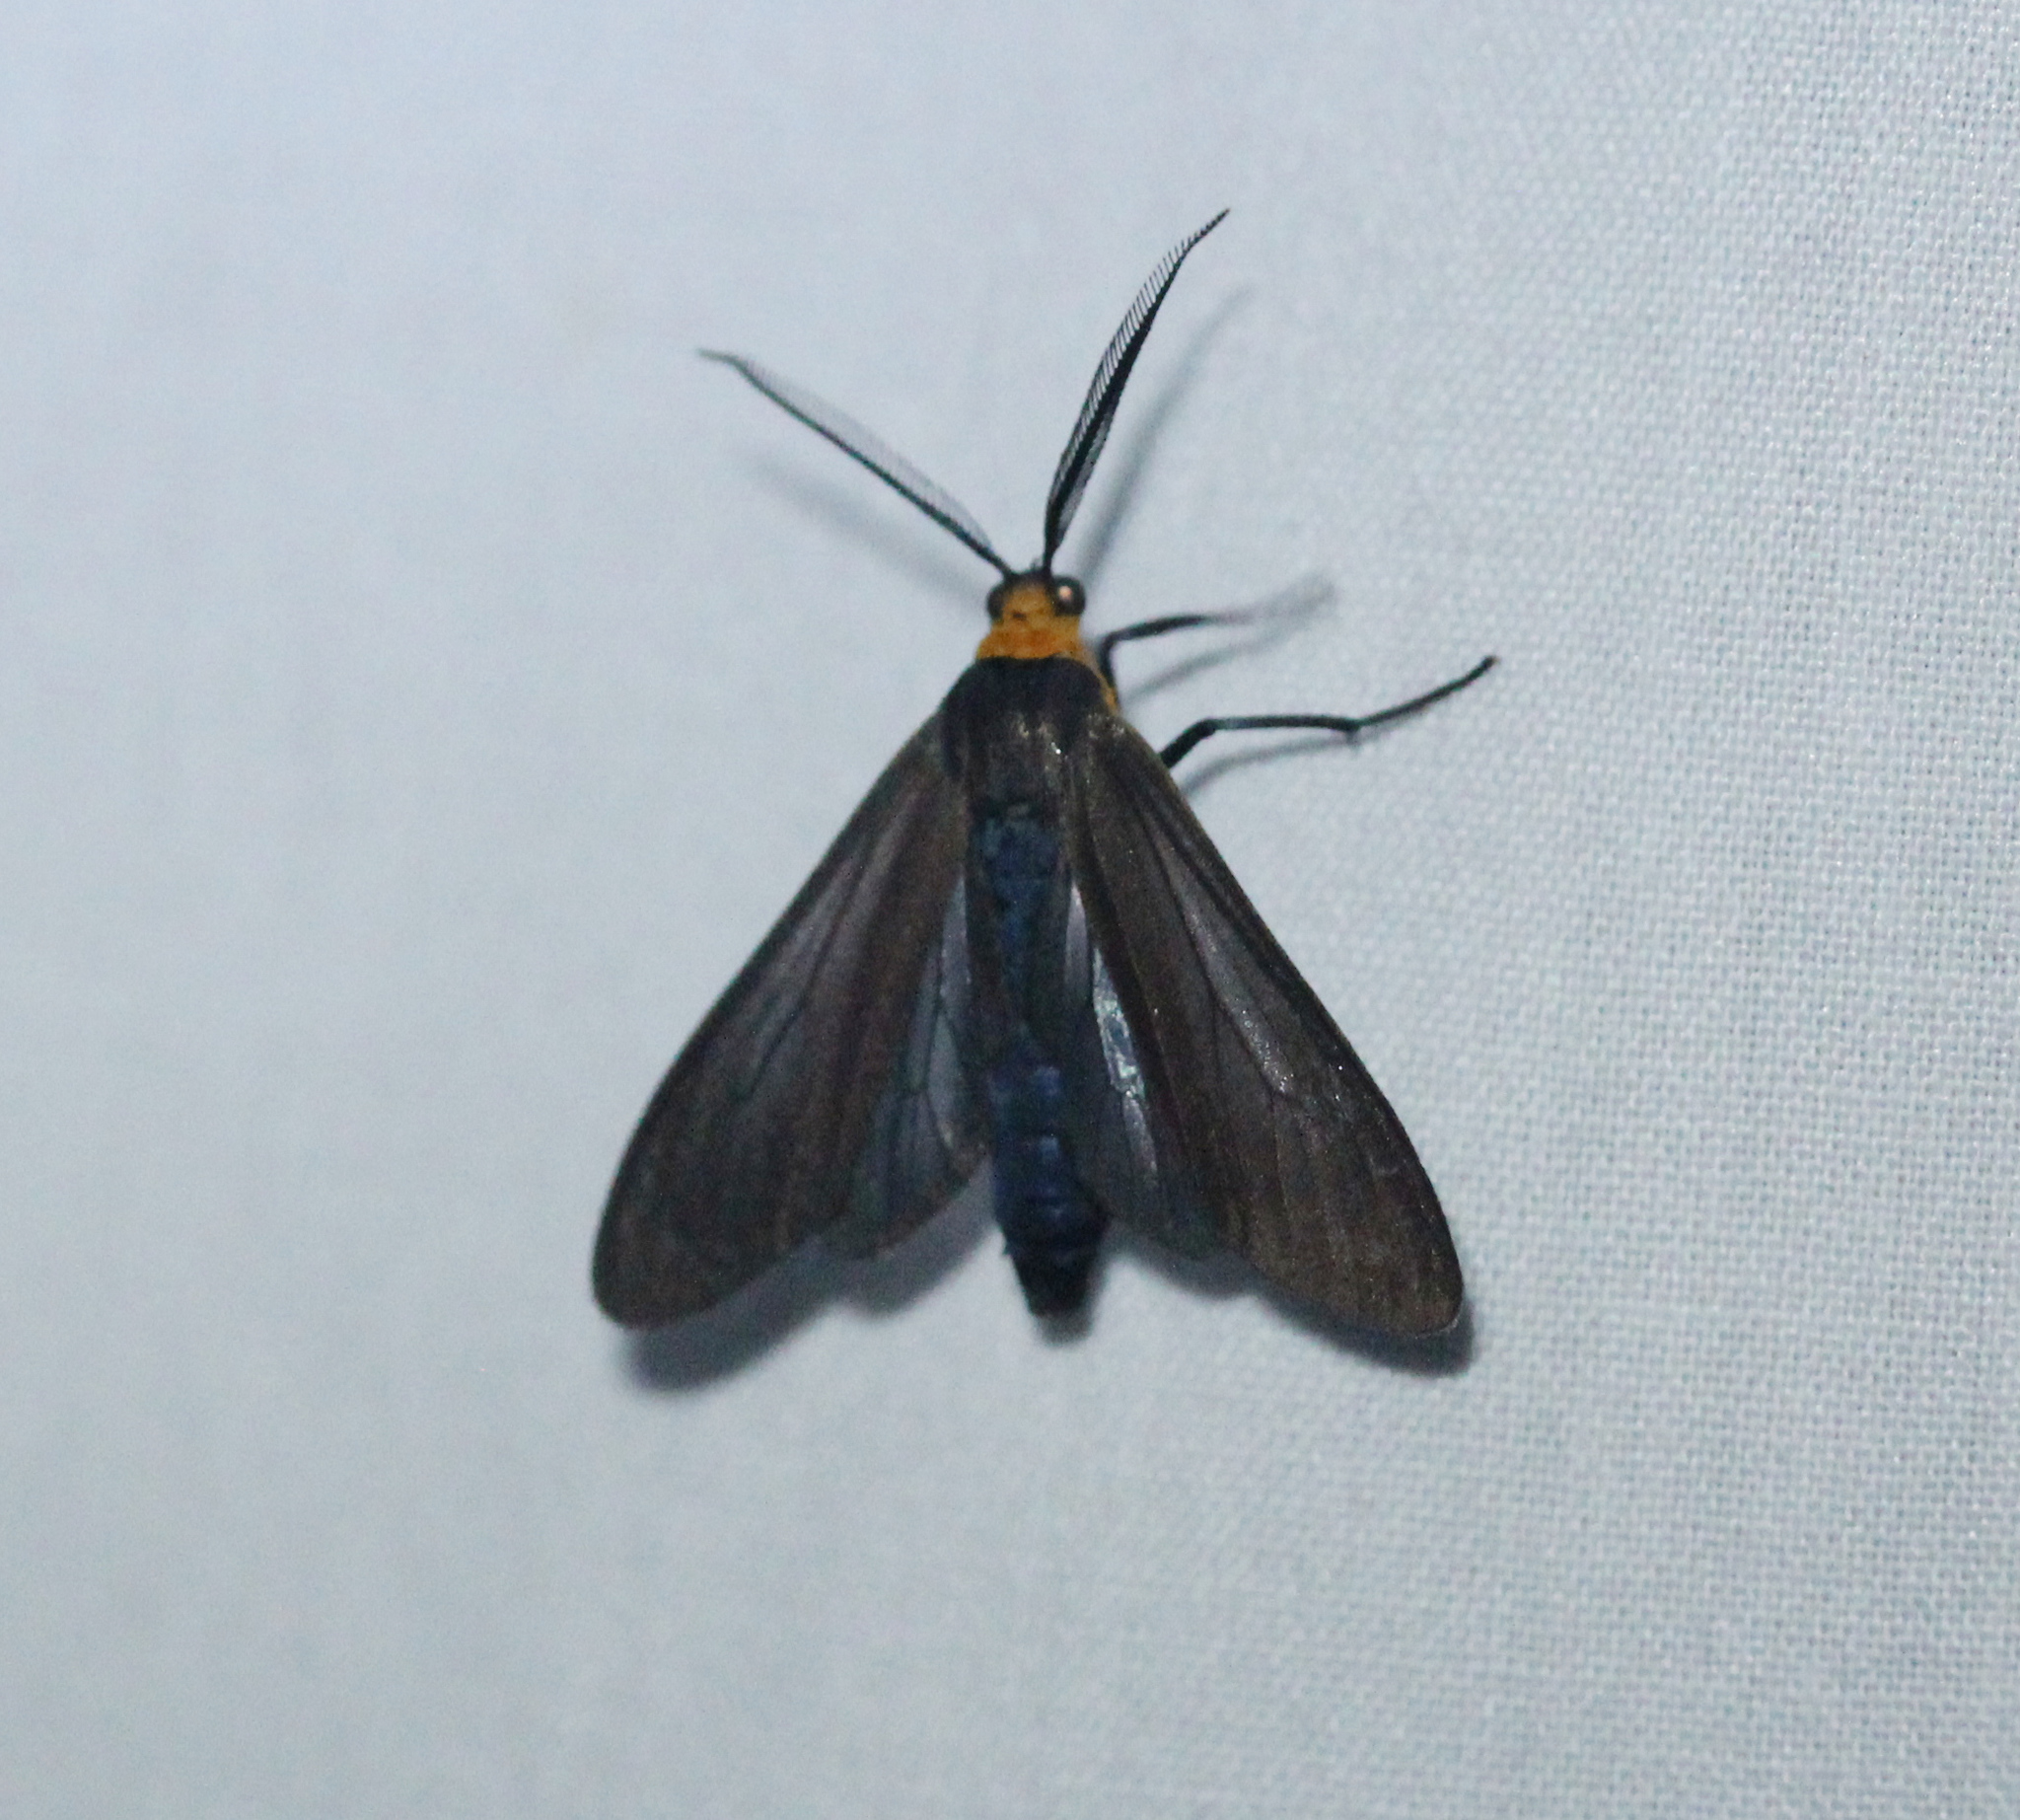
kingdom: Animalia
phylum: Arthropoda
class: Insecta
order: Lepidoptera
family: Erebidae
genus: Ctenucha
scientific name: Ctenucha virginica
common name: Virginia ctenucha moth
